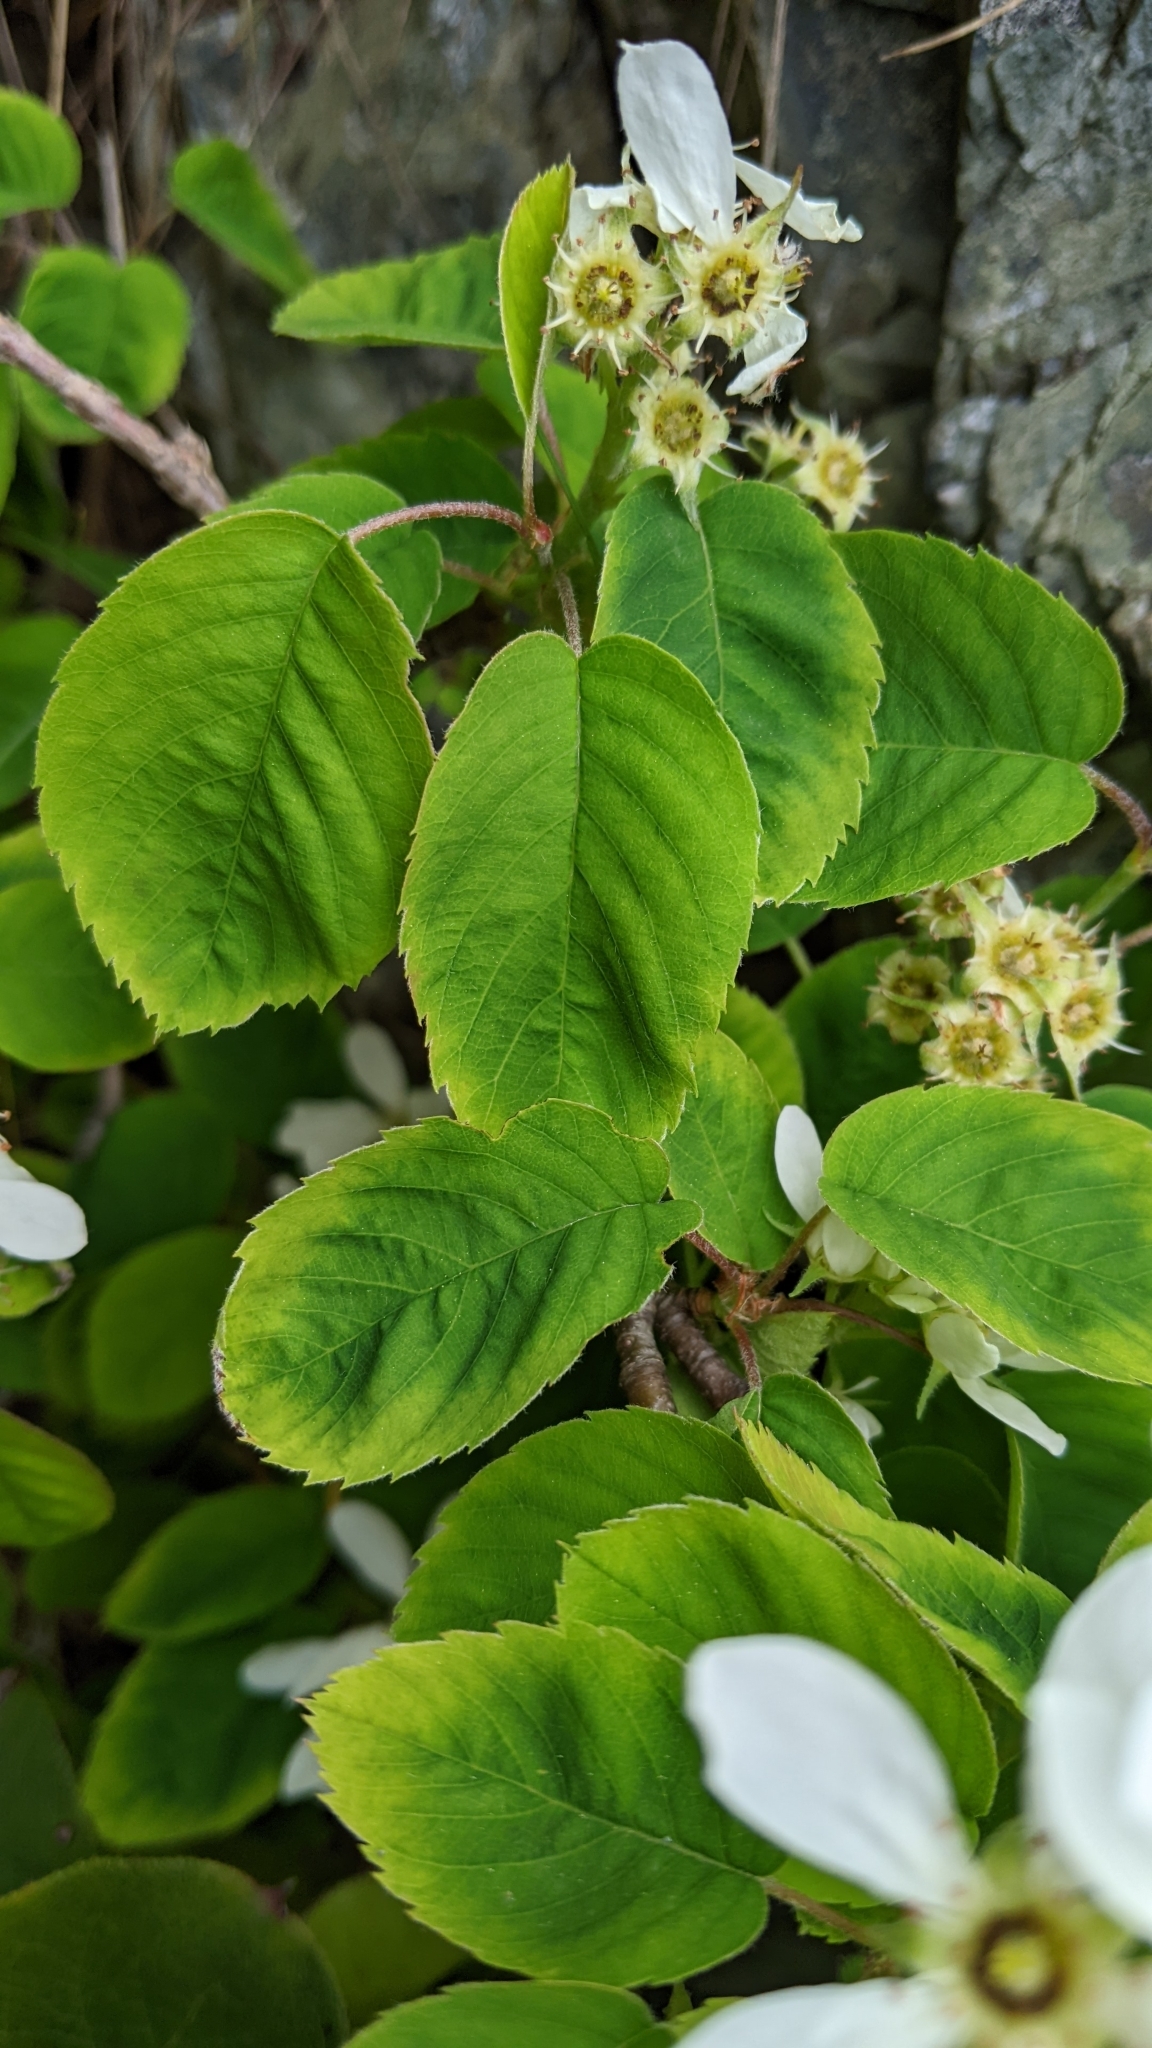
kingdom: Plantae
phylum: Tracheophyta
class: Magnoliopsida
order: Rosales
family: Rosaceae
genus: Amelanchier
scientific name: Amelanchier alnifolia
